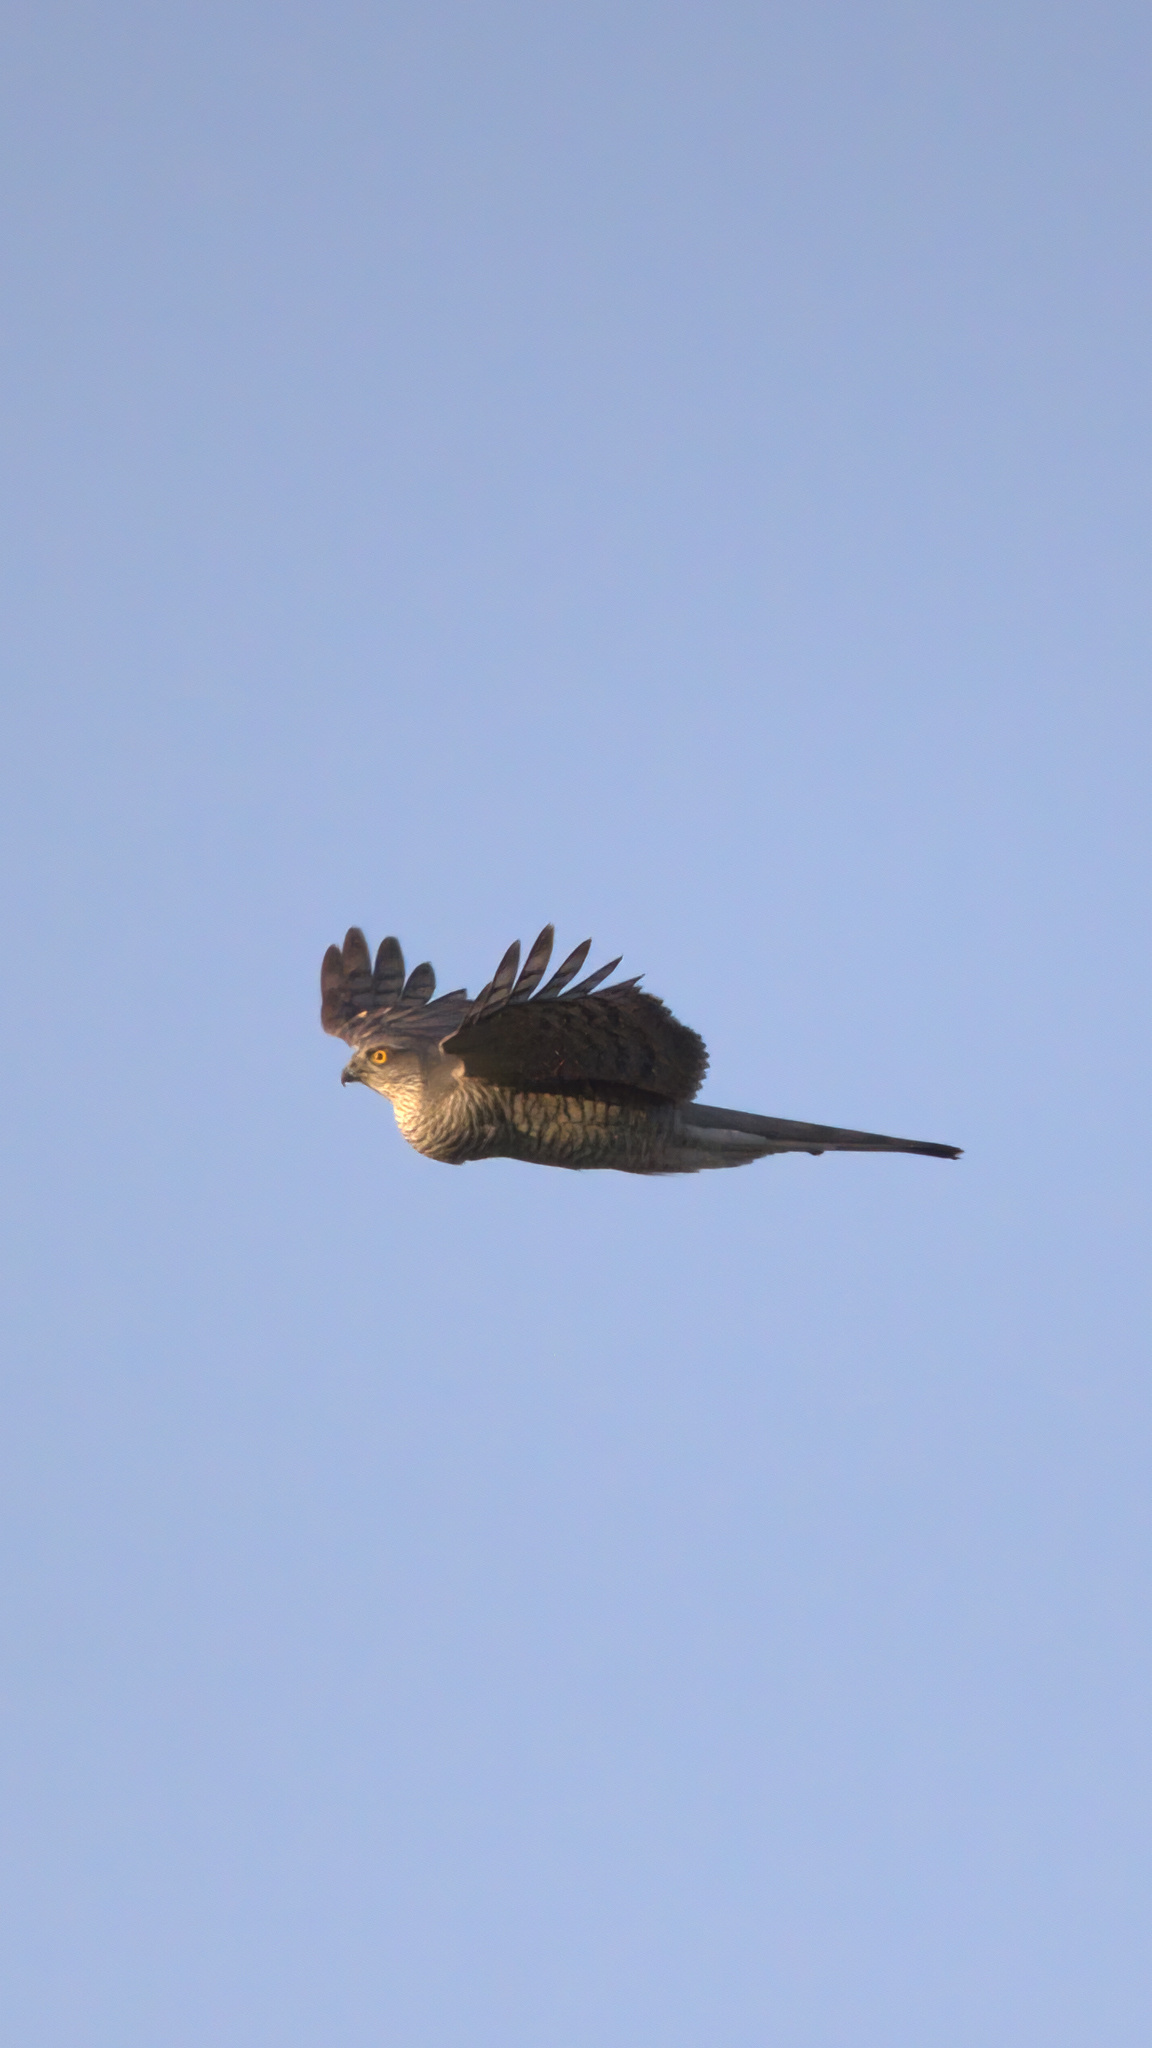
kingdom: Animalia
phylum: Chordata
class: Aves
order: Accipitriformes
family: Accipitridae
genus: Accipiter
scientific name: Accipiter nisus
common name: Eurasian sparrowhawk
